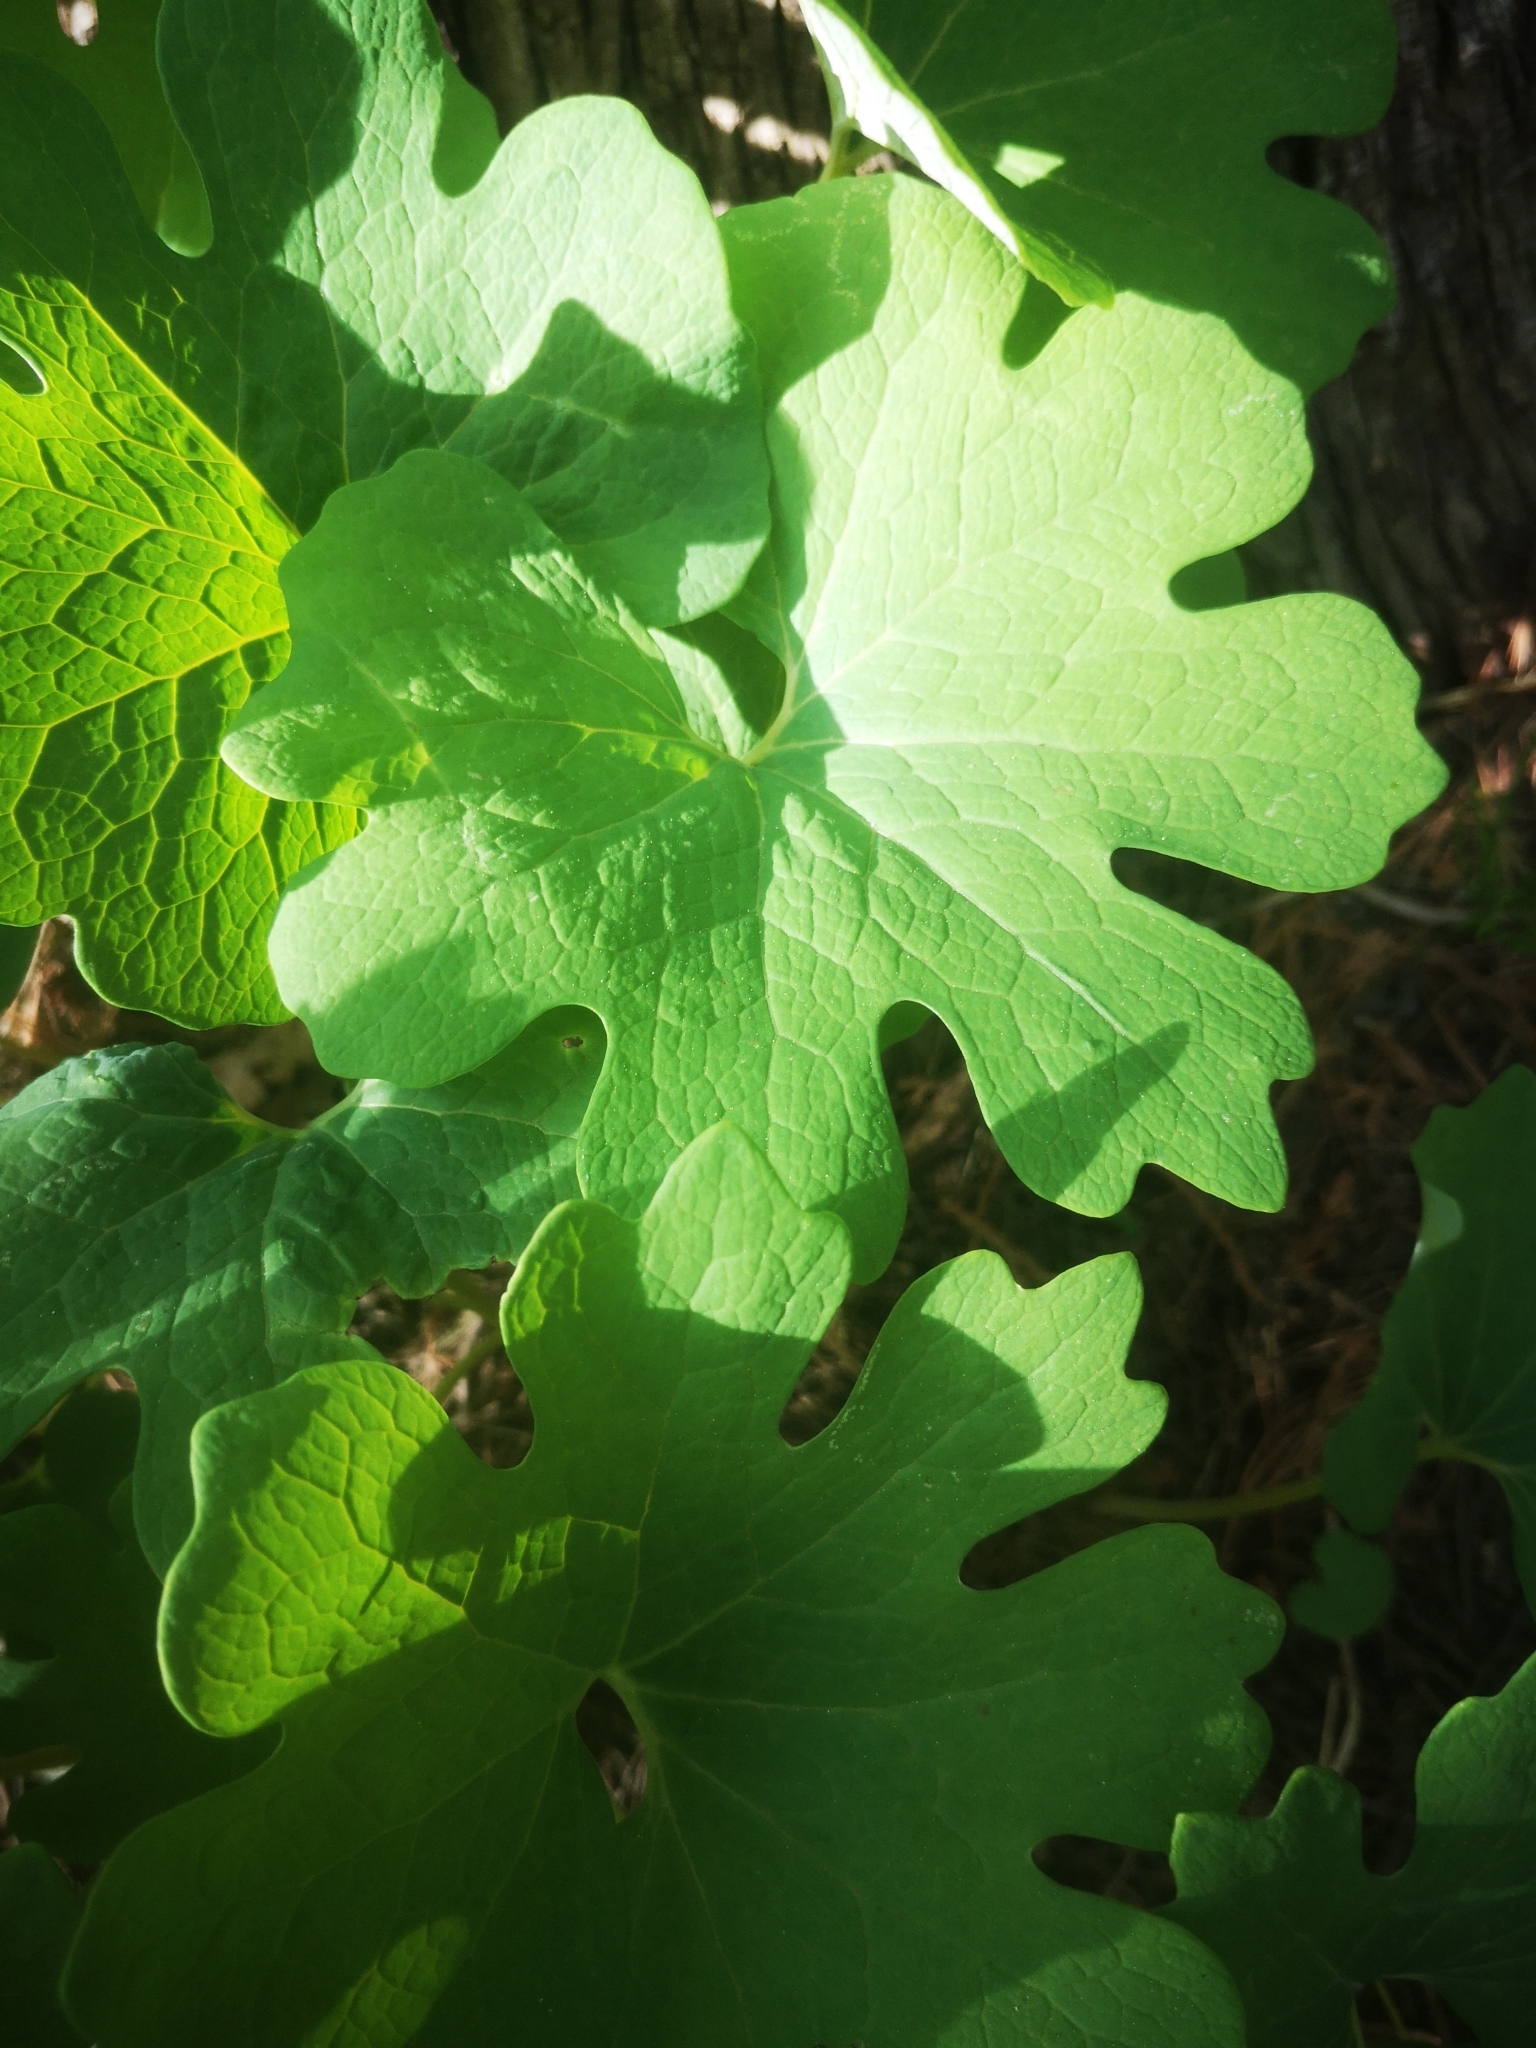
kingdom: Plantae
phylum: Tracheophyta
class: Magnoliopsida
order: Ranunculales
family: Papaveraceae
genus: Sanguinaria
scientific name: Sanguinaria canadensis
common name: Bloodroot
